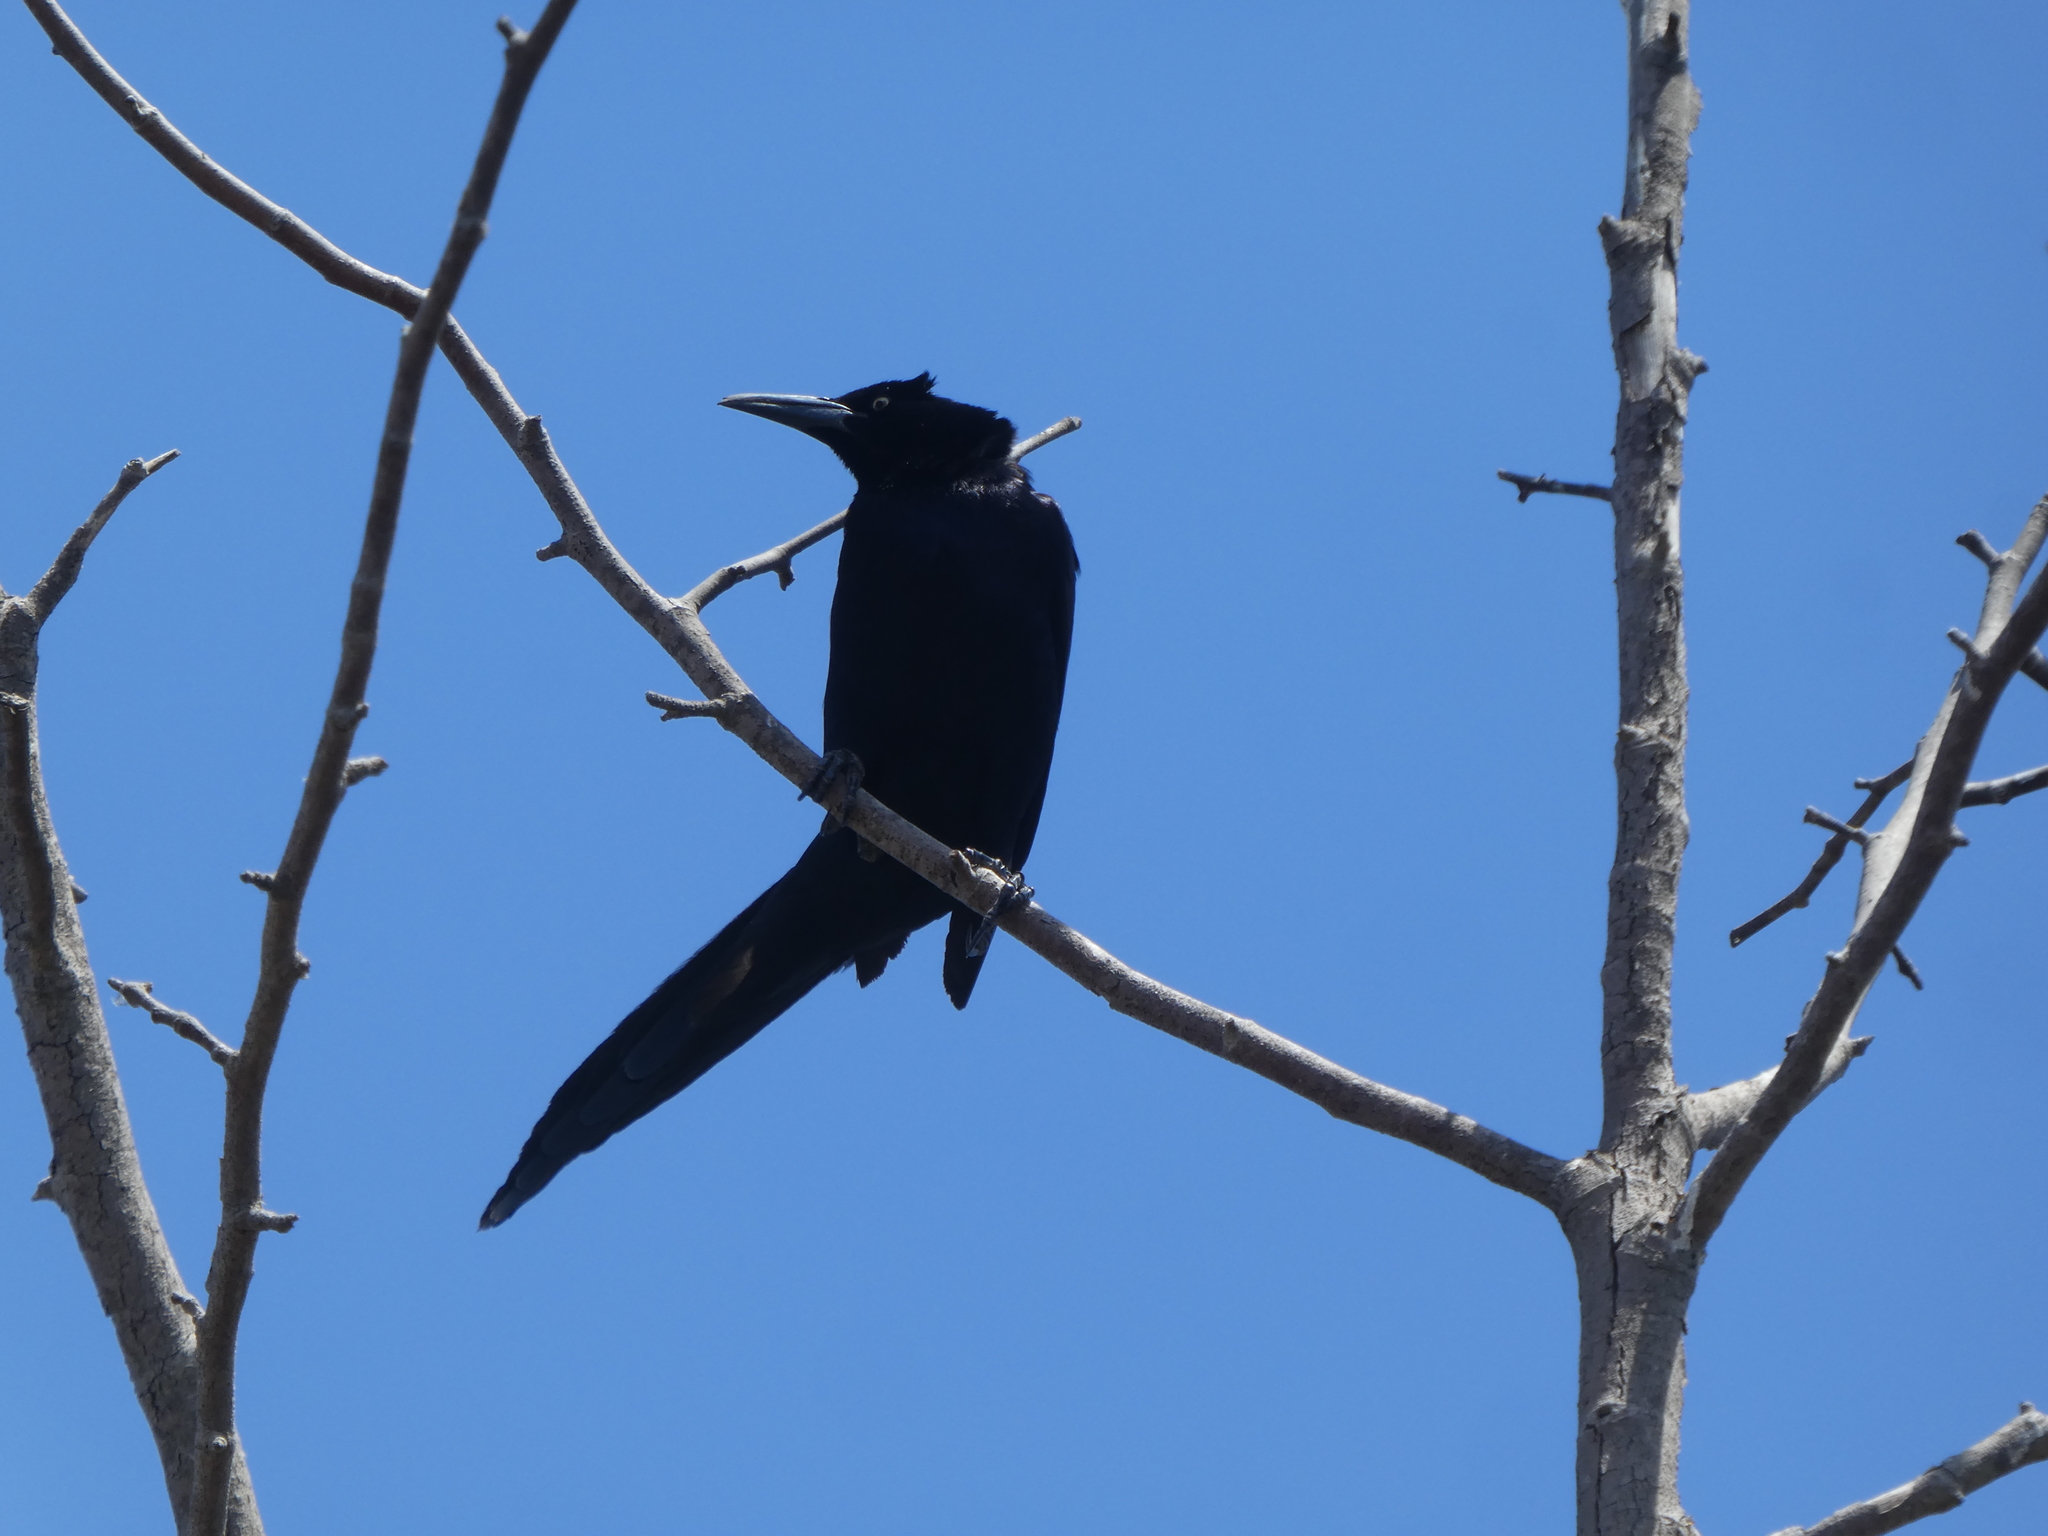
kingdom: Animalia
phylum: Chordata
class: Aves
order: Passeriformes
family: Icteridae
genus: Quiscalus
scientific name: Quiscalus mexicanus
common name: Great-tailed grackle
